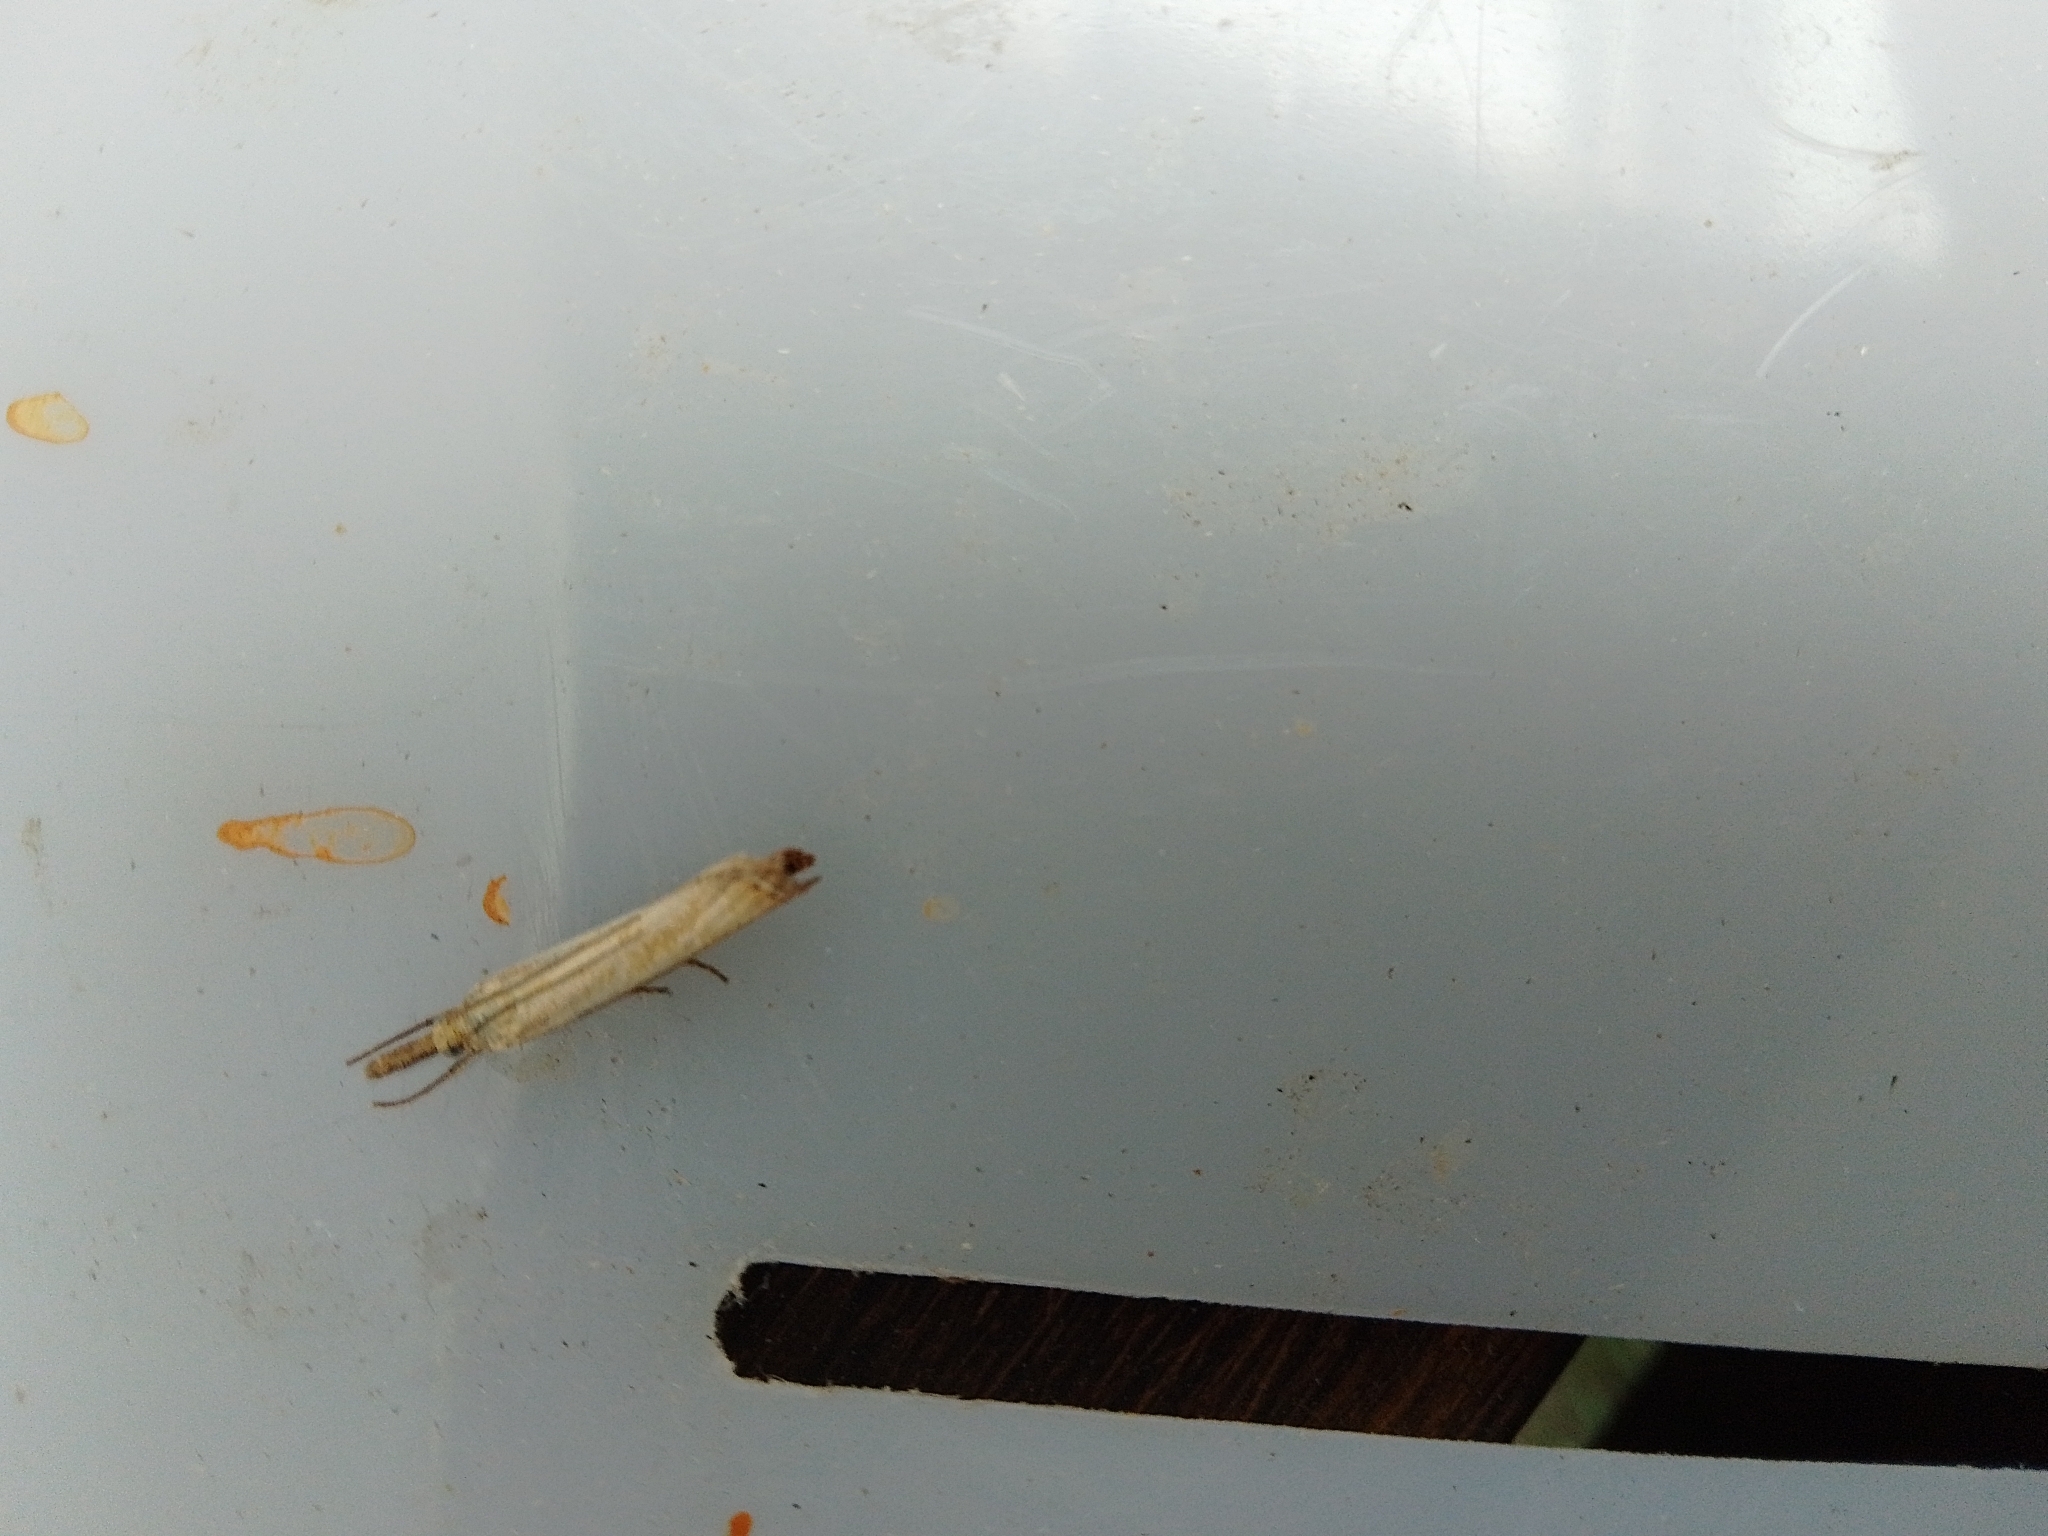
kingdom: Animalia
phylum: Arthropoda
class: Insecta
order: Lepidoptera
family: Crambidae
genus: Agriphila
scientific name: Agriphila straminella
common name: Straw grass-veneer
